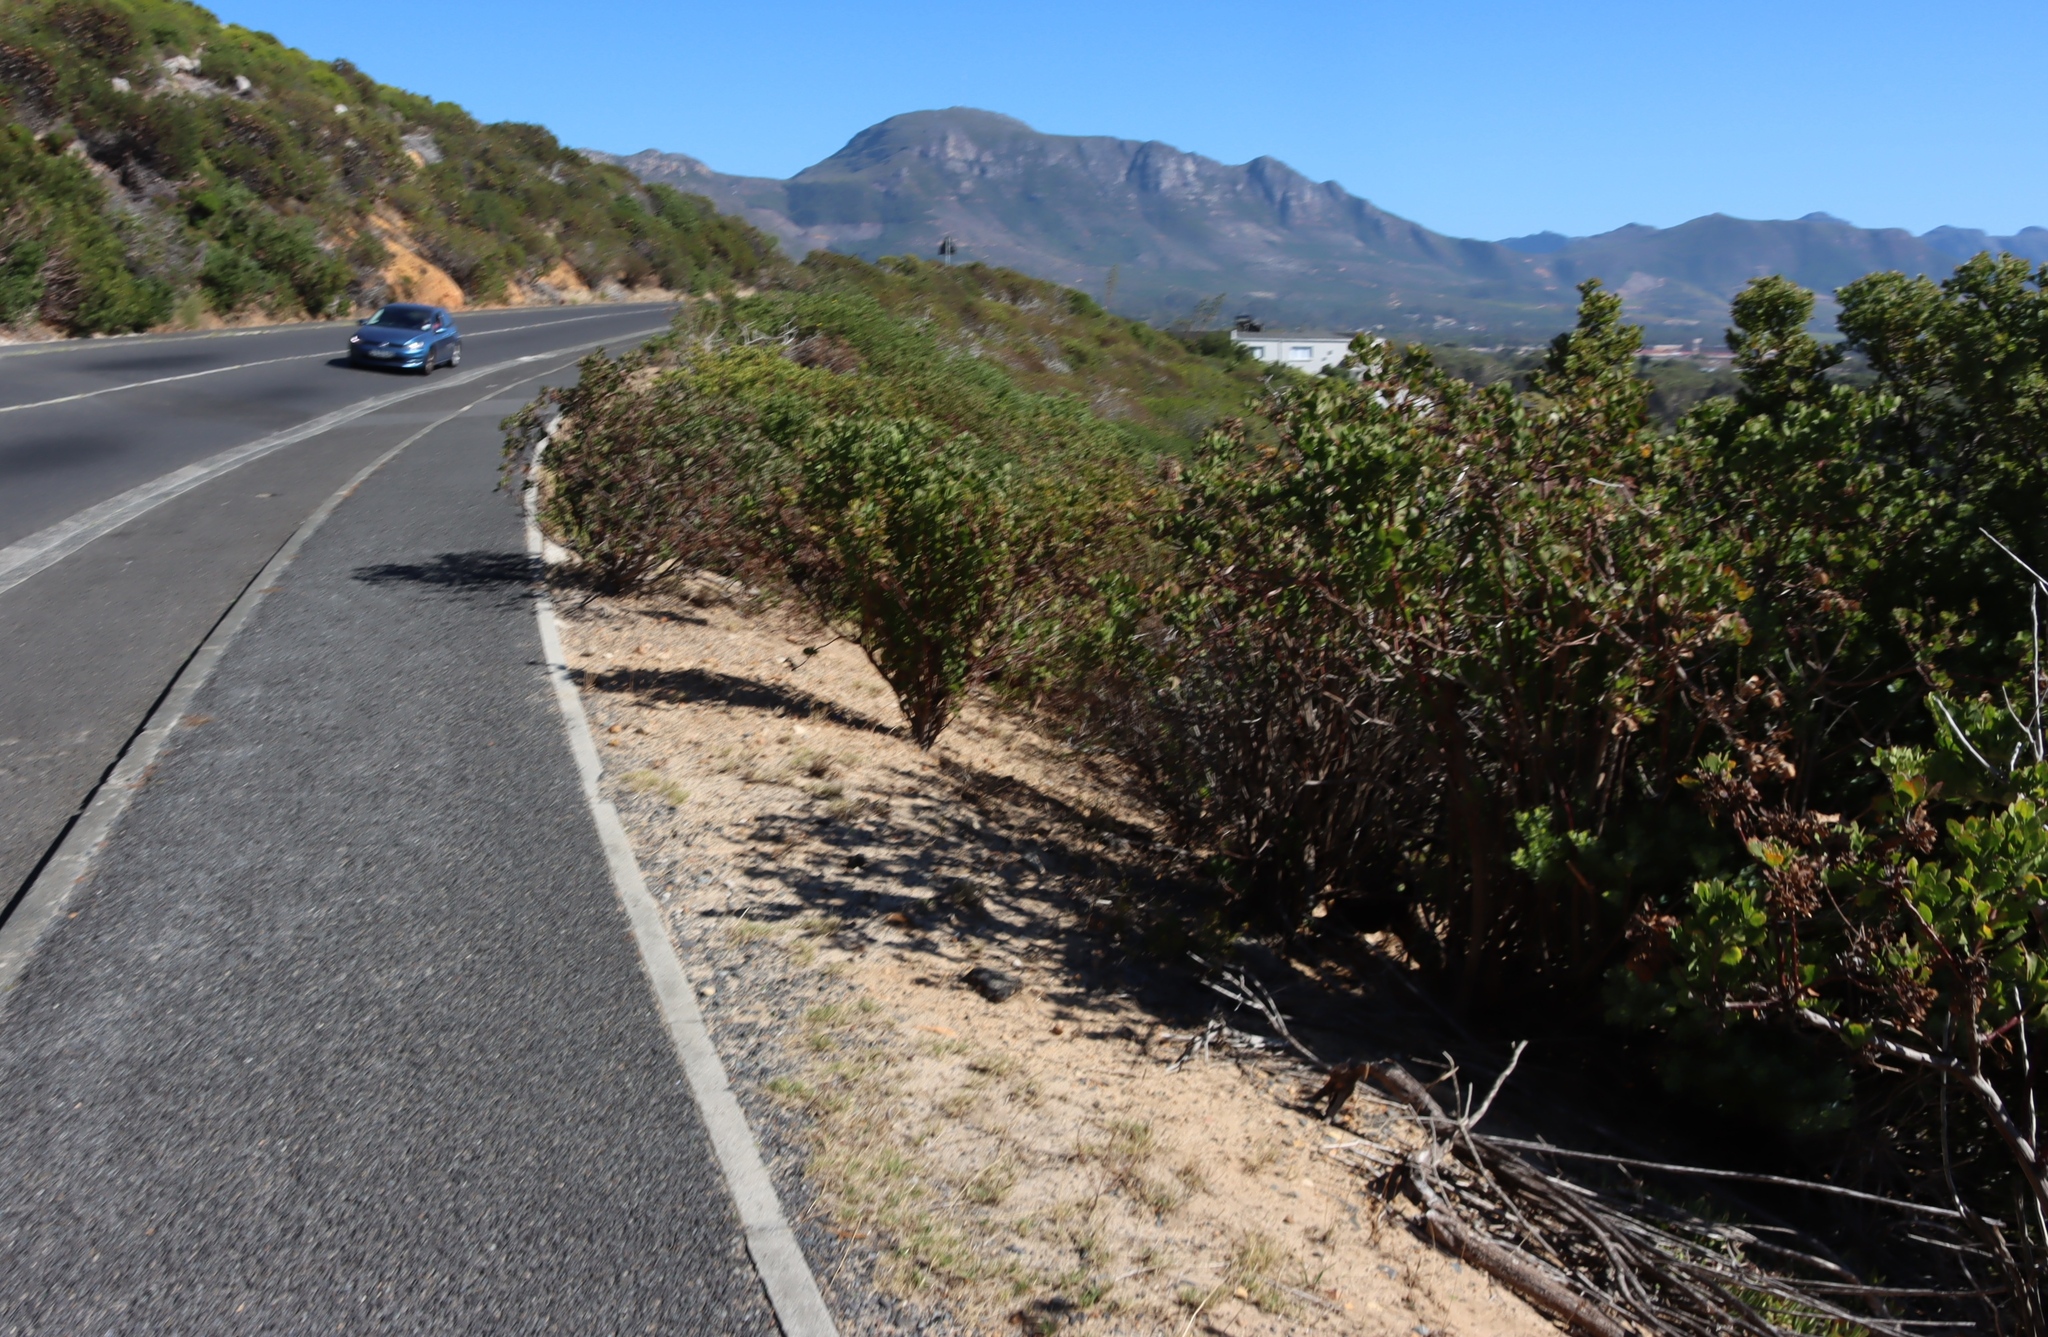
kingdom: Plantae
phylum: Tracheophyta
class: Magnoliopsida
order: Asterales
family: Asteraceae
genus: Osteospermum
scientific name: Osteospermum moniliferum
